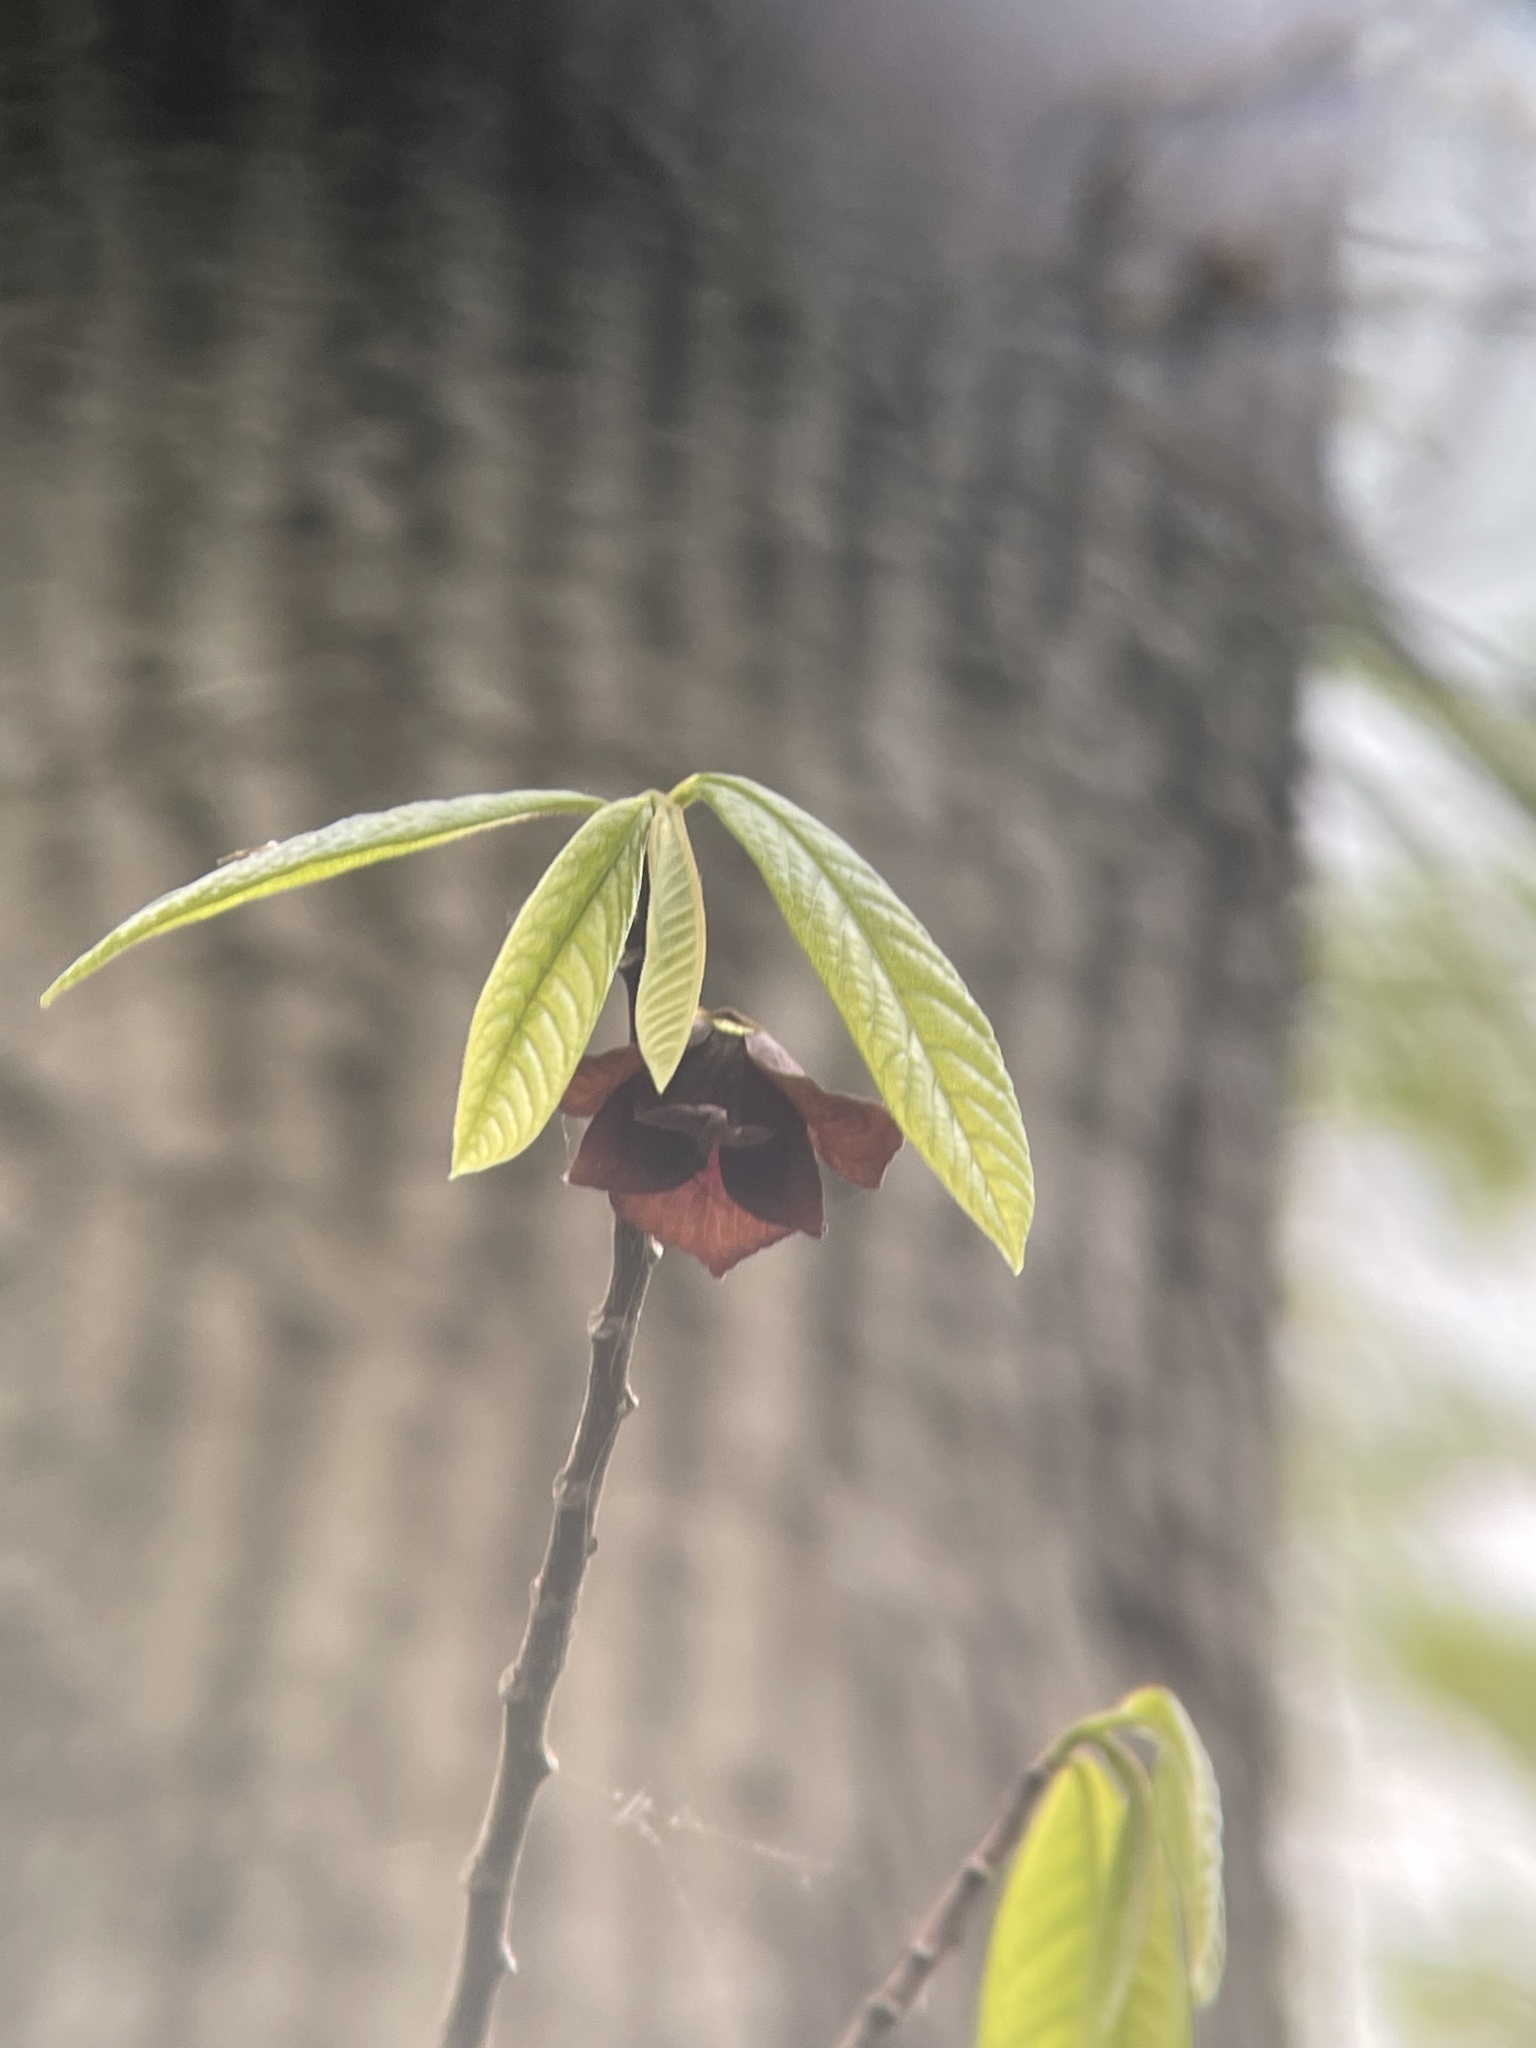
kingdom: Plantae
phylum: Tracheophyta
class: Magnoliopsida
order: Magnoliales
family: Annonaceae
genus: Asimina
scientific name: Asimina triloba
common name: Dog-banana
